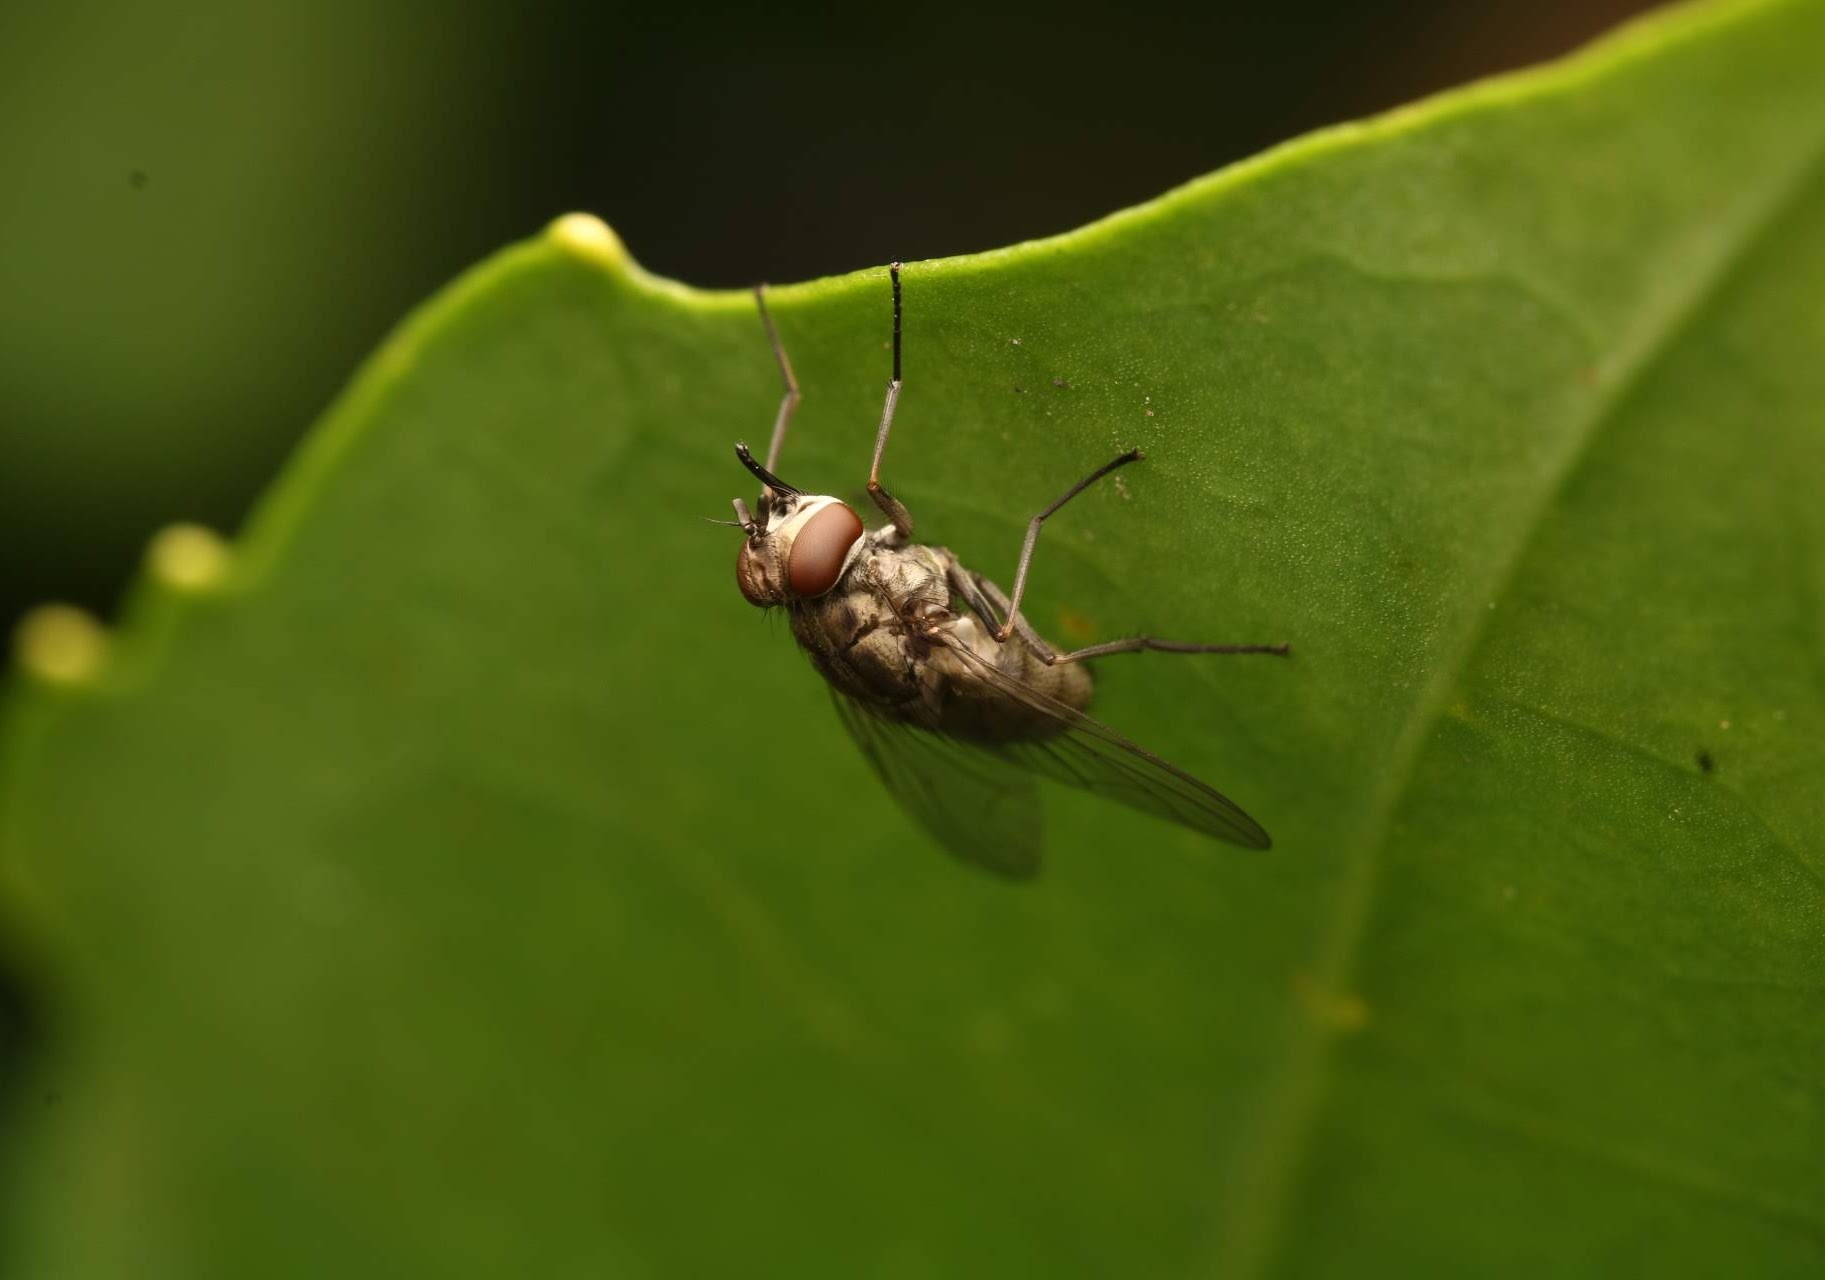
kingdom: Animalia
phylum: Arthropoda
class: Insecta
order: Diptera
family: Muscidae
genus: Stomoxys
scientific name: Stomoxys calcitrans
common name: Stable fly
